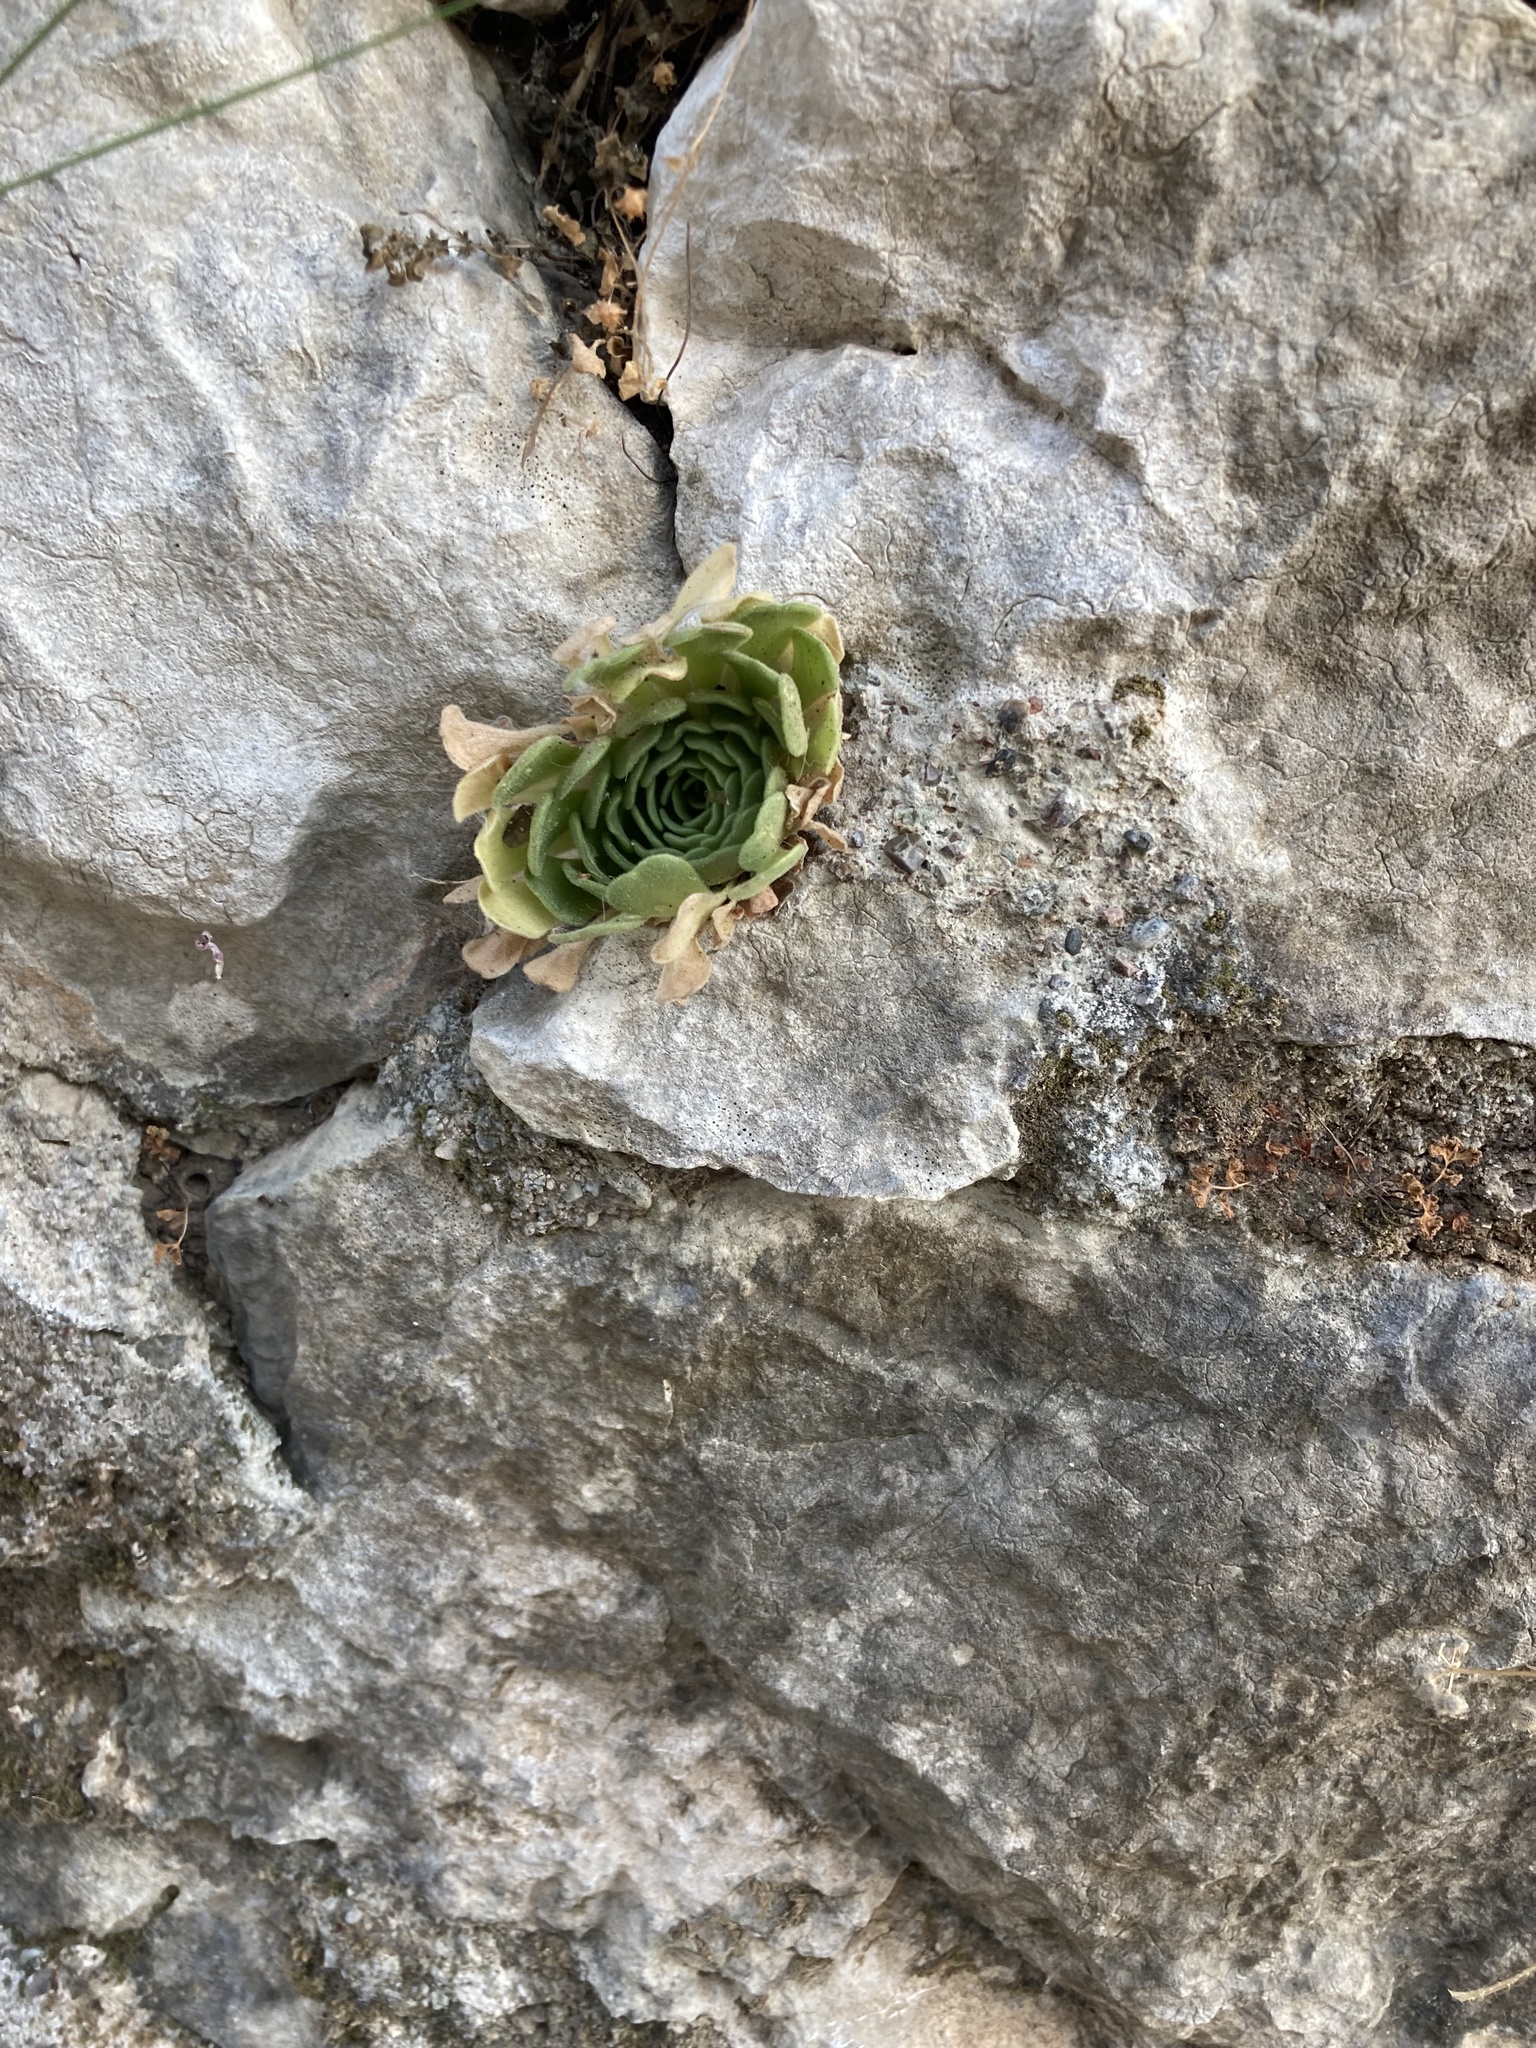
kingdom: Plantae
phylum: Tracheophyta
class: Magnoliopsida
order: Saxifragales
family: Crassulaceae
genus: Rosularia
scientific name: Rosularia globulariifolia
